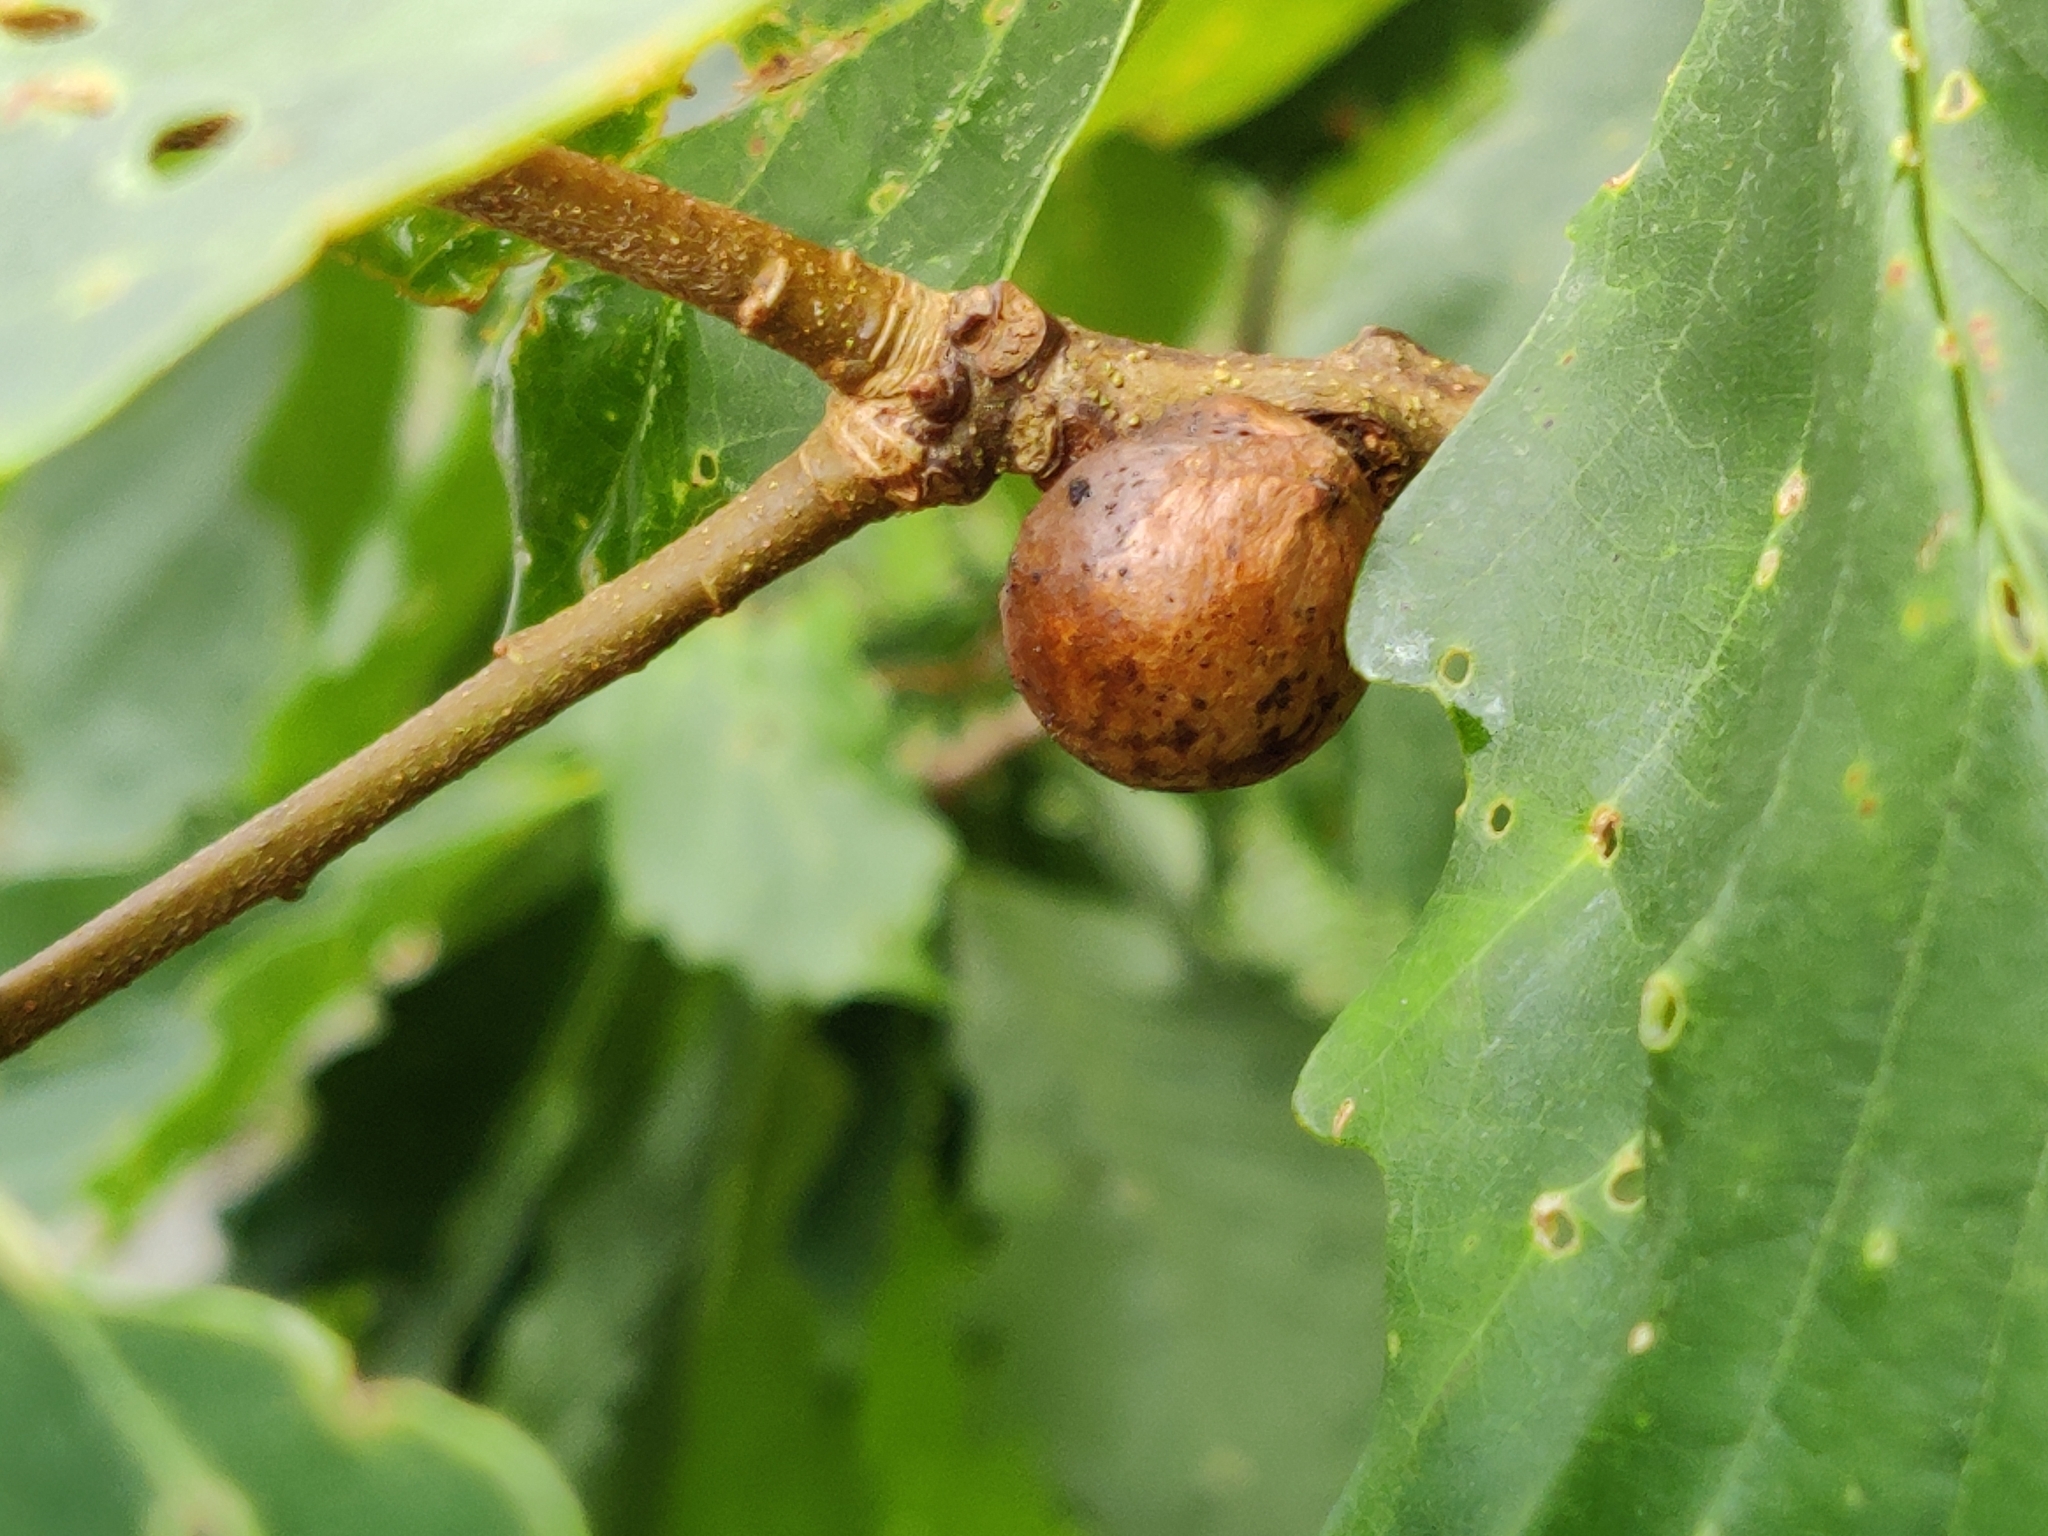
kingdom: Animalia
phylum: Arthropoda
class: Insecta
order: Hymenoptera
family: Cynipidae
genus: Disholcaspis
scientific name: Disholcaspis quercusglobulus
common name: Round bullet gall wasp
